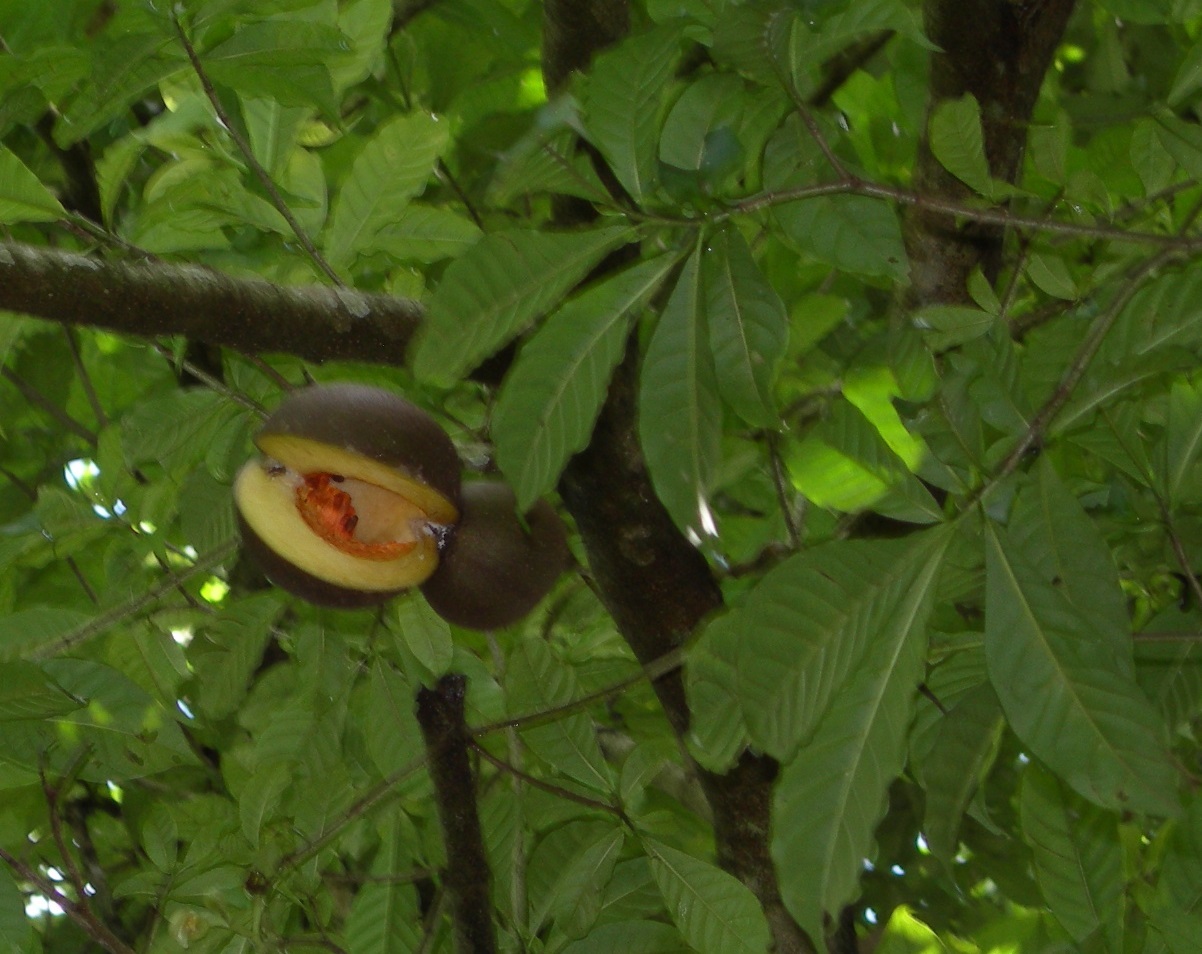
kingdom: Plantae
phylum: Tracheophyta
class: Magnoliopsida
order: Gentianales
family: Apocynaceae
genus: Tabernaemontana
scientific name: Tabernaemontana donnell-smithii
